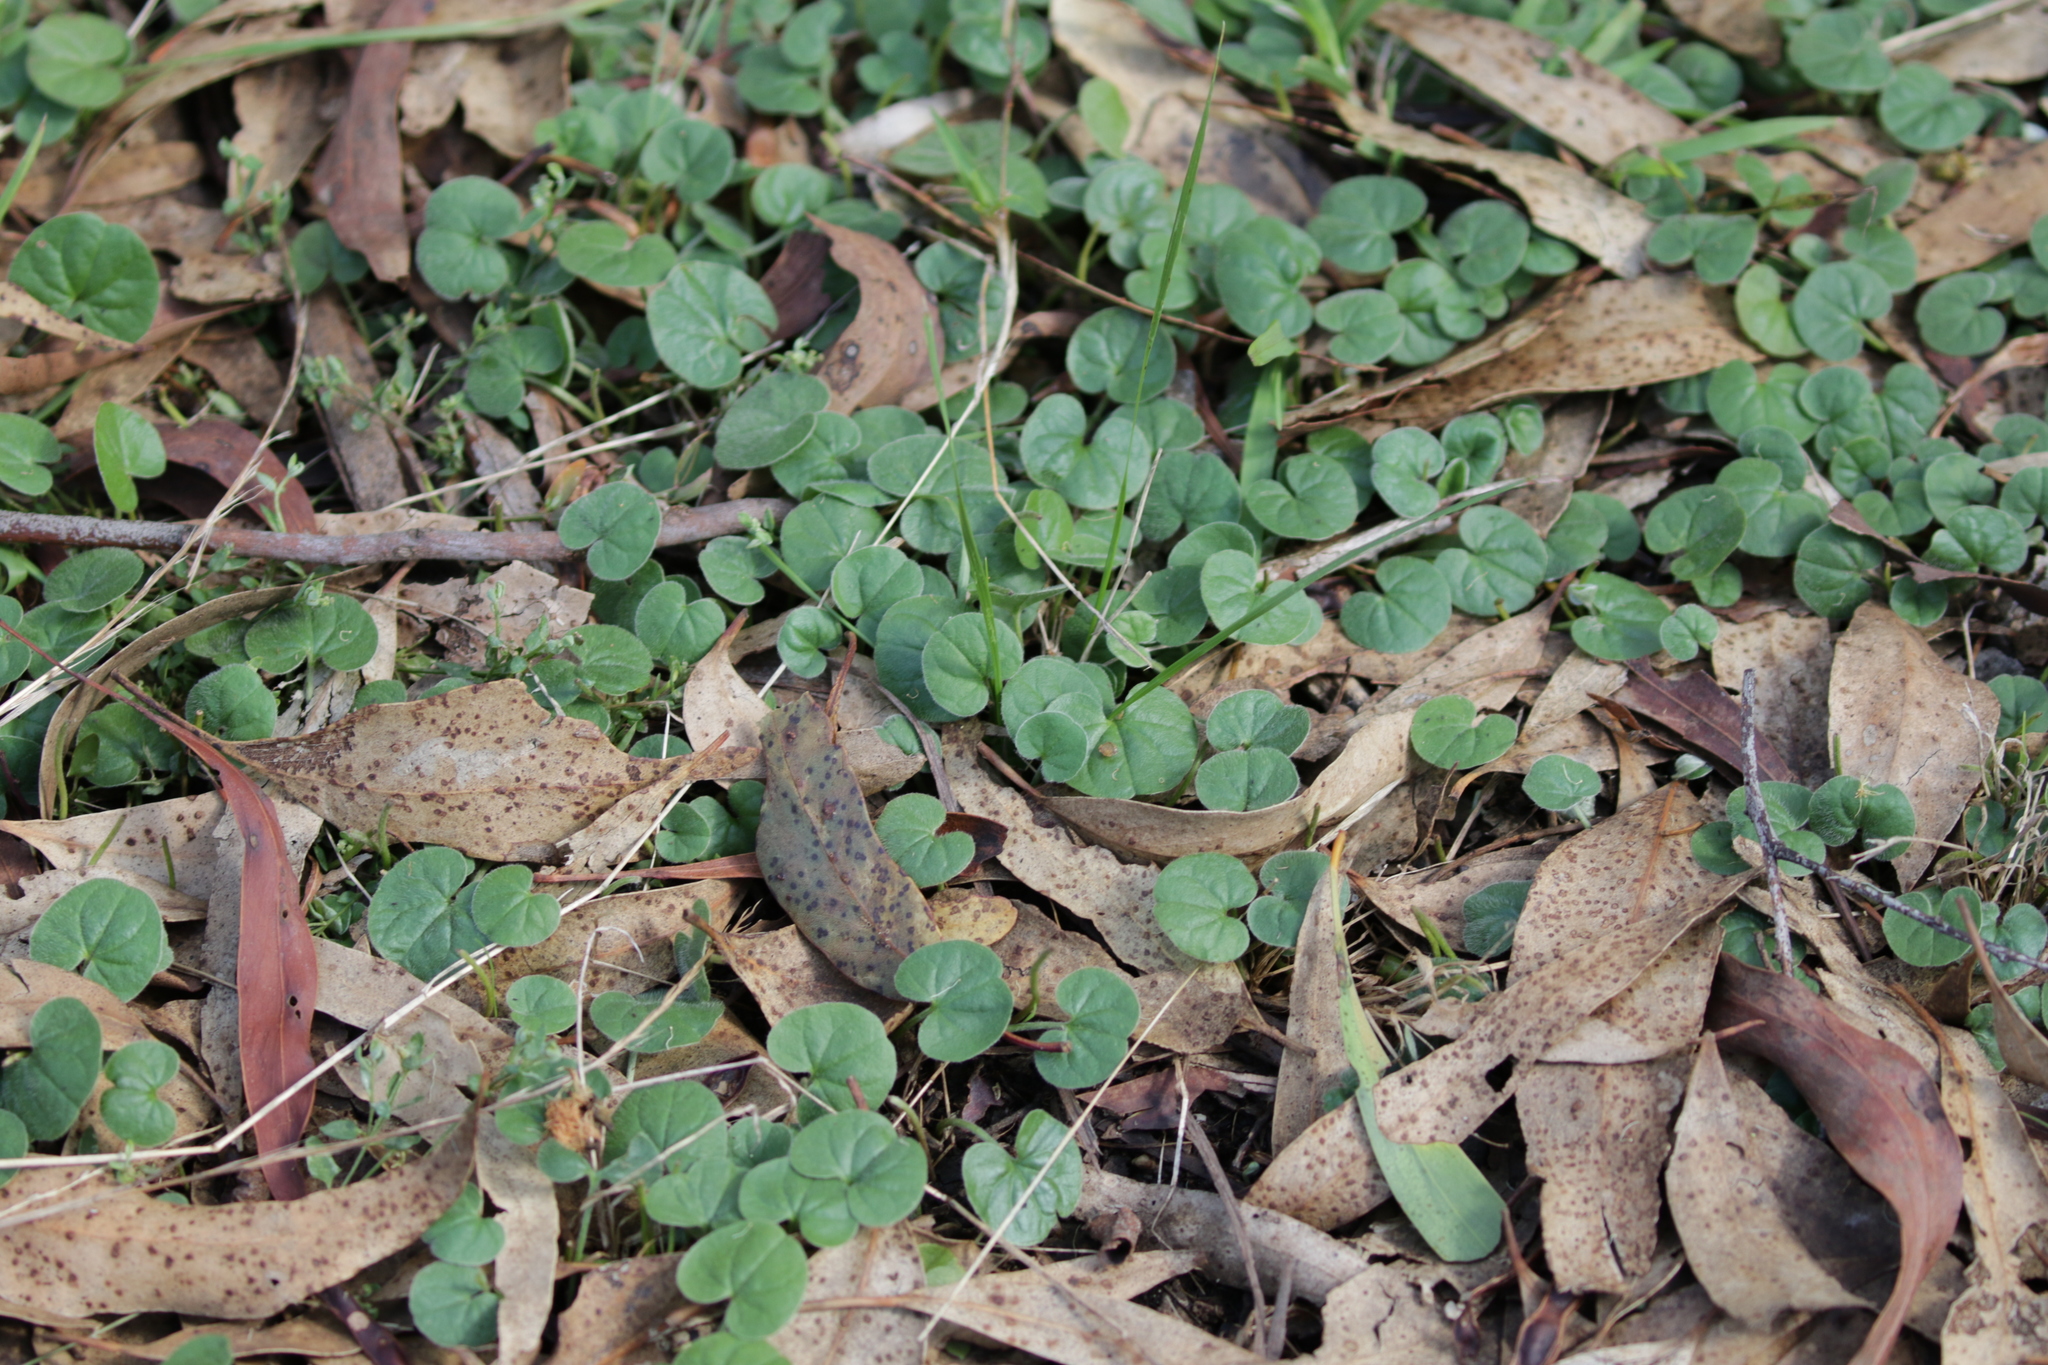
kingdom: Plantae
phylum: Tracheophyta
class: Magnoliopsida
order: Solanales
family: Convolvulaceae
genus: Dichondra
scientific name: Dichondra repens
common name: Kidneyweed
